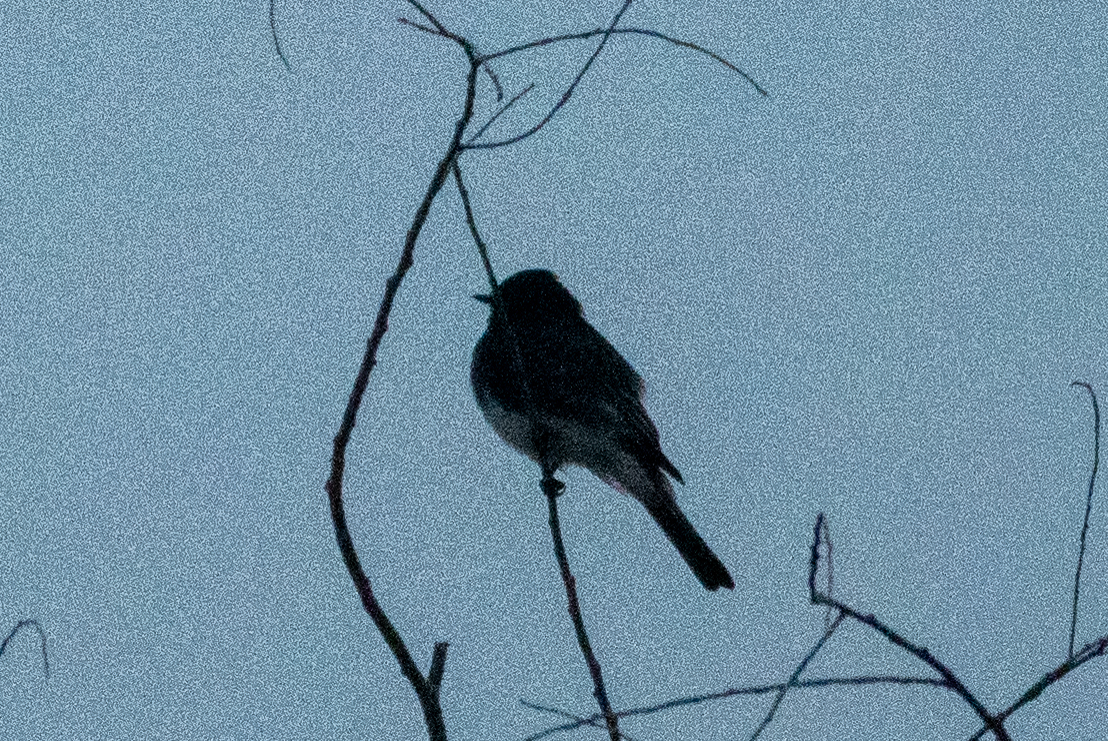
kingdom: Animalia
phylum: Chordata
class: Aves
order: Passeriformes
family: Tyrannidae
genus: Sayornis
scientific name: Sayornis nigricans
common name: Black phoebe
